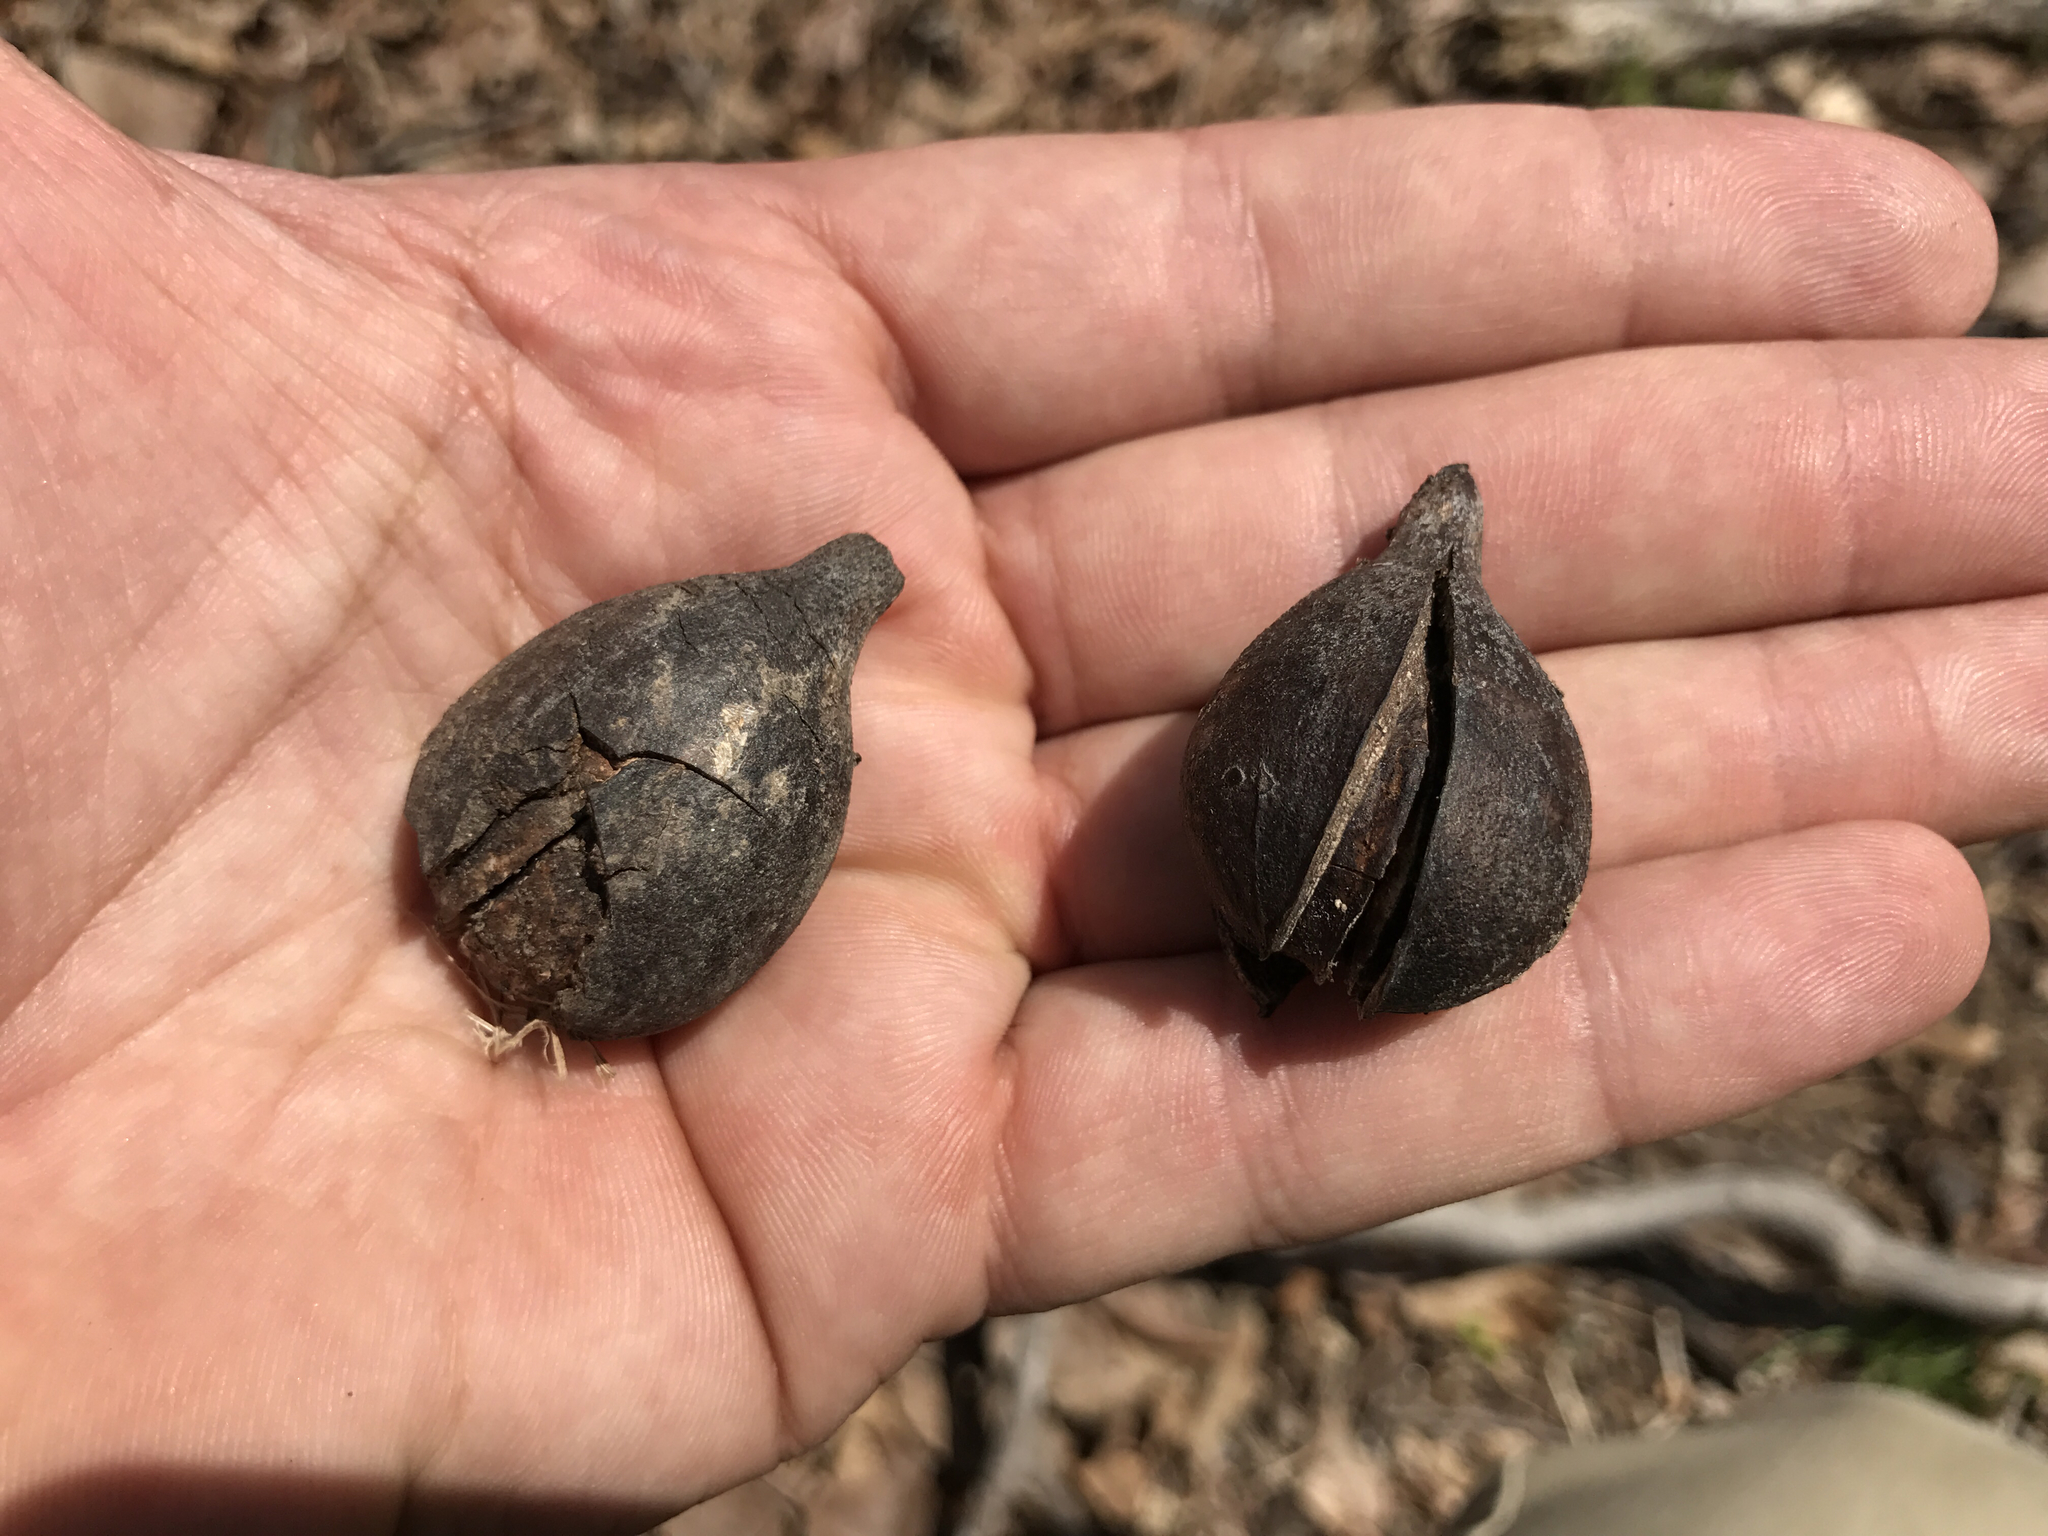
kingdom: Plantae
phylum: Tracheophyta
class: Magnoliopsida
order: Fagales
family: Juglandaceae
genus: Carya
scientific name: Carya glabra
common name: Pignut hickory
